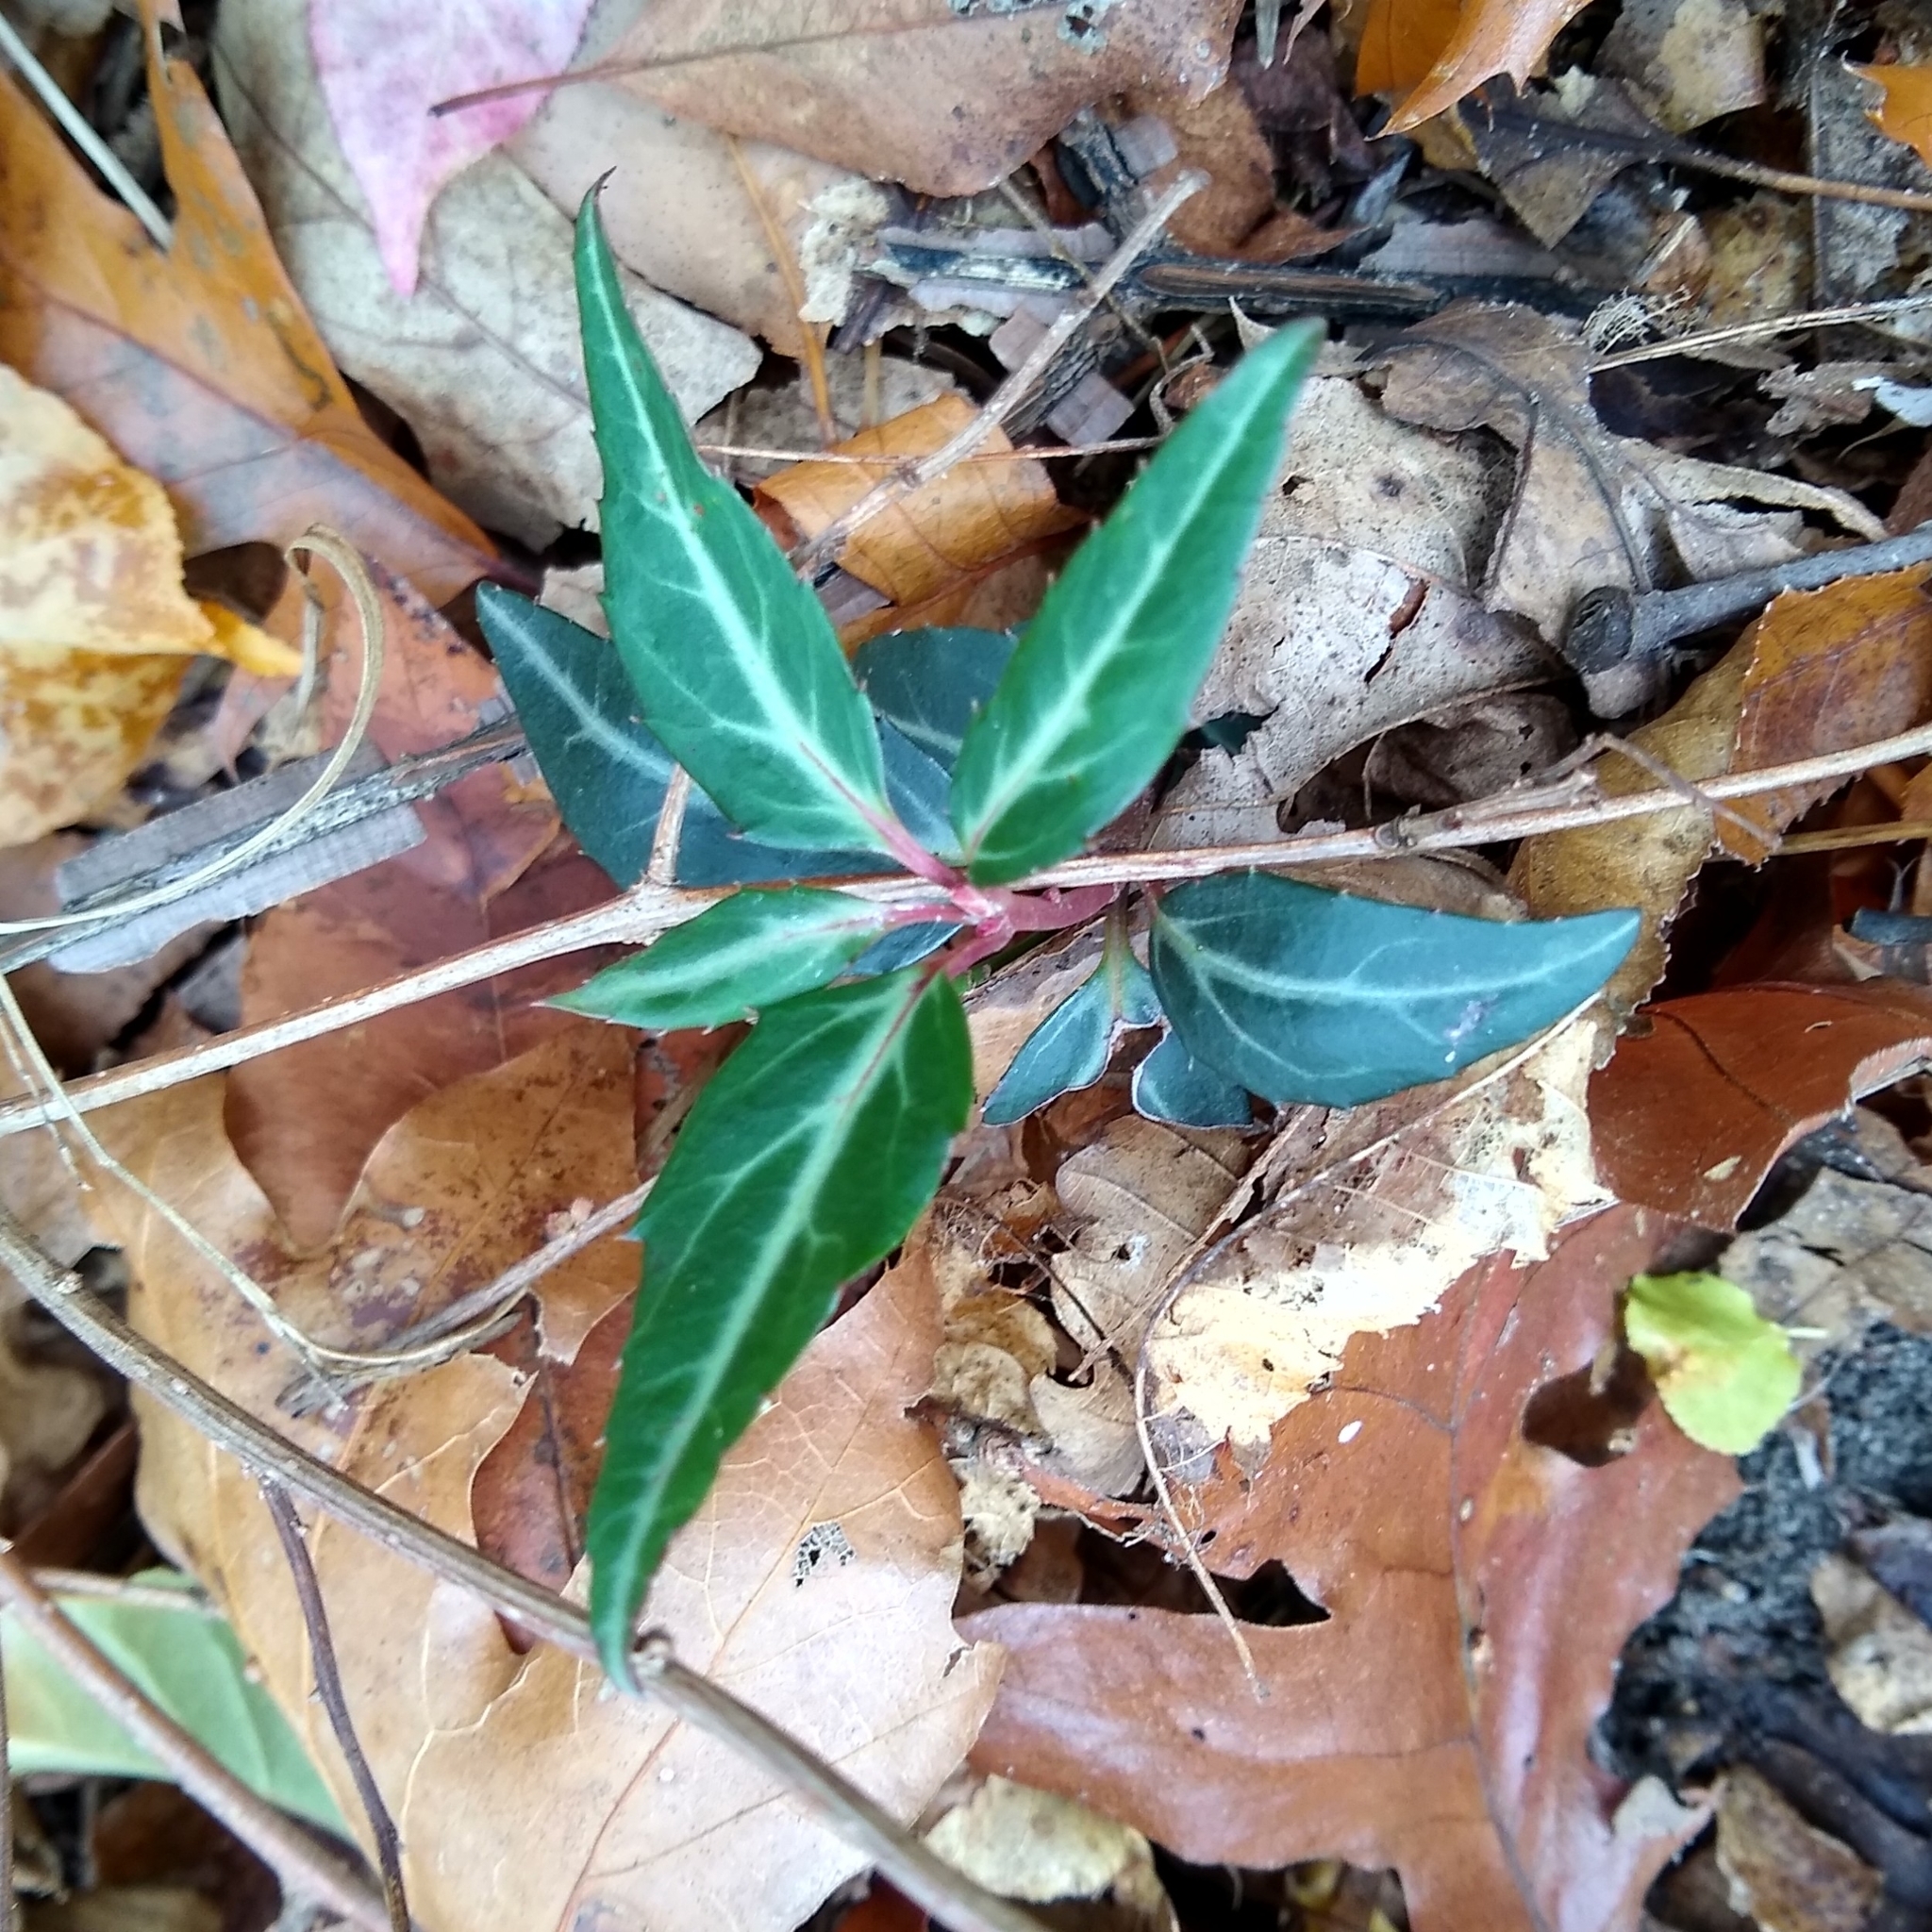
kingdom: Plantae
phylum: Tracheophyta
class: Magnoliopsida
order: Ericales
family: Ericaceae
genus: Chimaphila
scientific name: Chimaphila maculata
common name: Spotted pipsissewa
